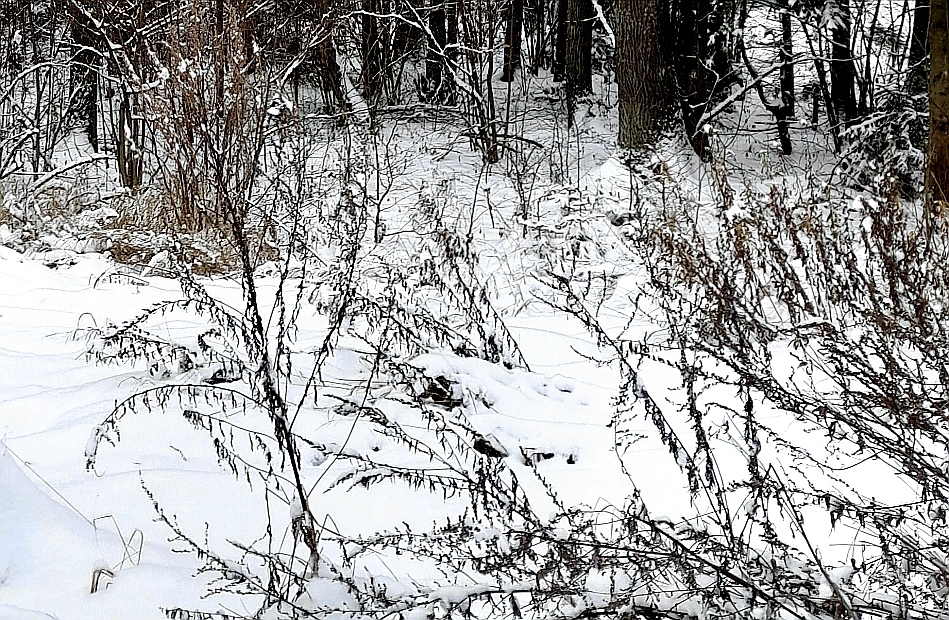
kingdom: Plantae
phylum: Tracheophyta
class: Magnoliopsida
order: Asterales
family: Asteraceae
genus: Artemisia
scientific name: Artemisia vulgaris
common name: Mugwort
